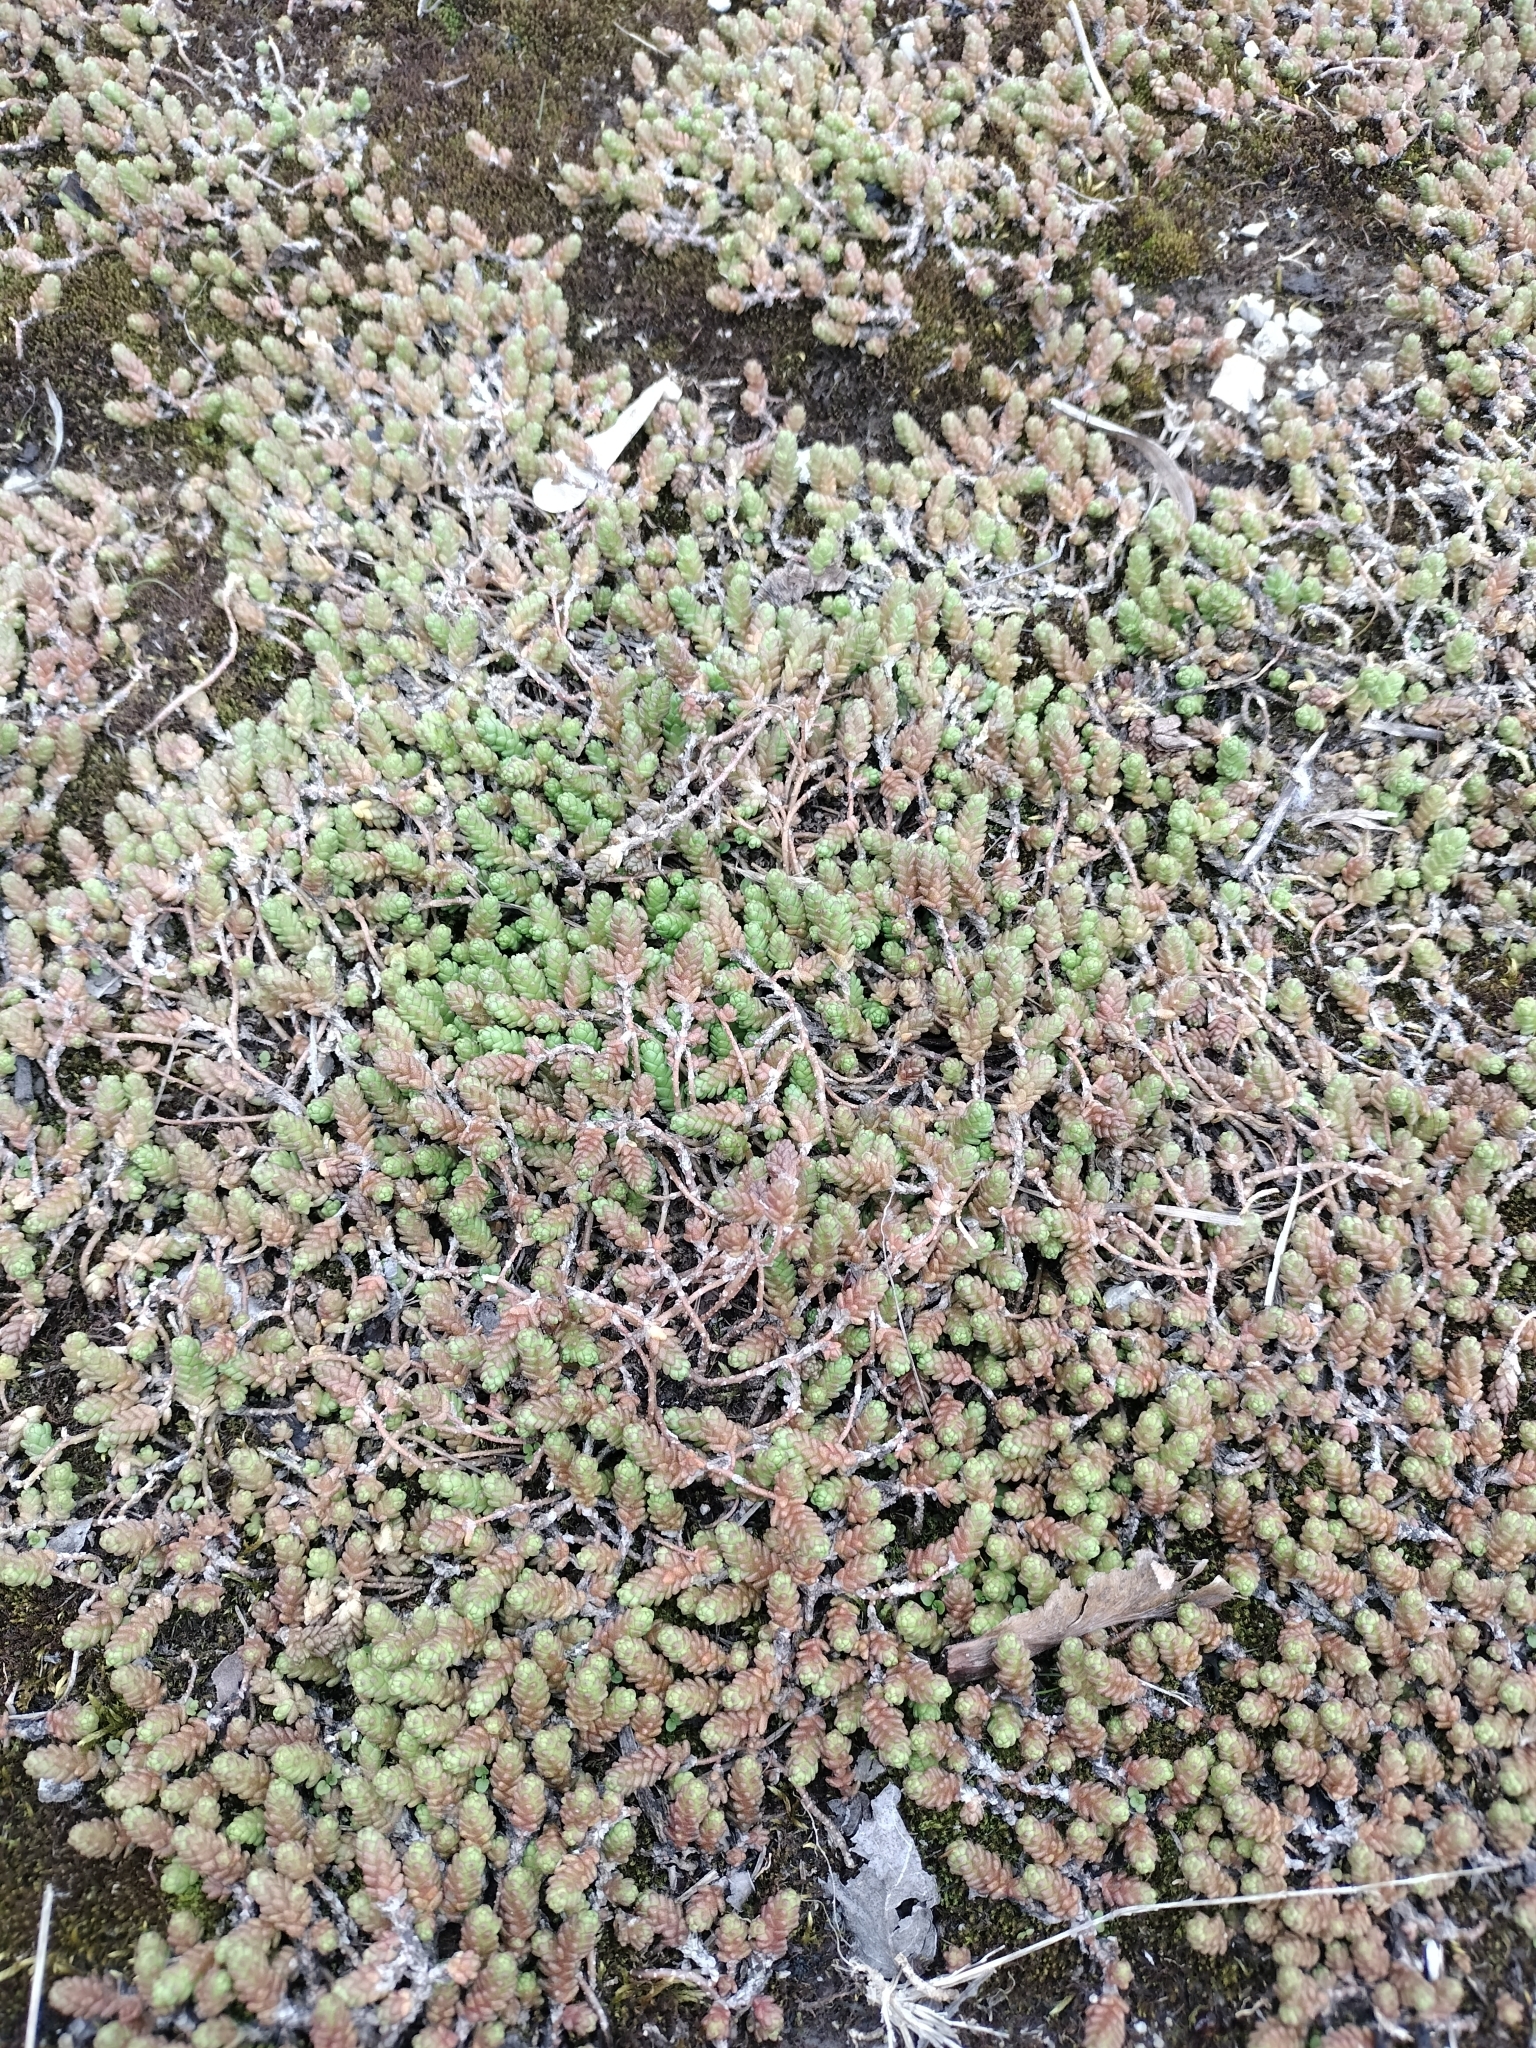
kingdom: Plantae
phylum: Tracheophyta
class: Magnoliopsida
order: Saxifragales
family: Crassulaceae
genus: Sedum
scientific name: Sedum acre
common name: Biting stonecrop
